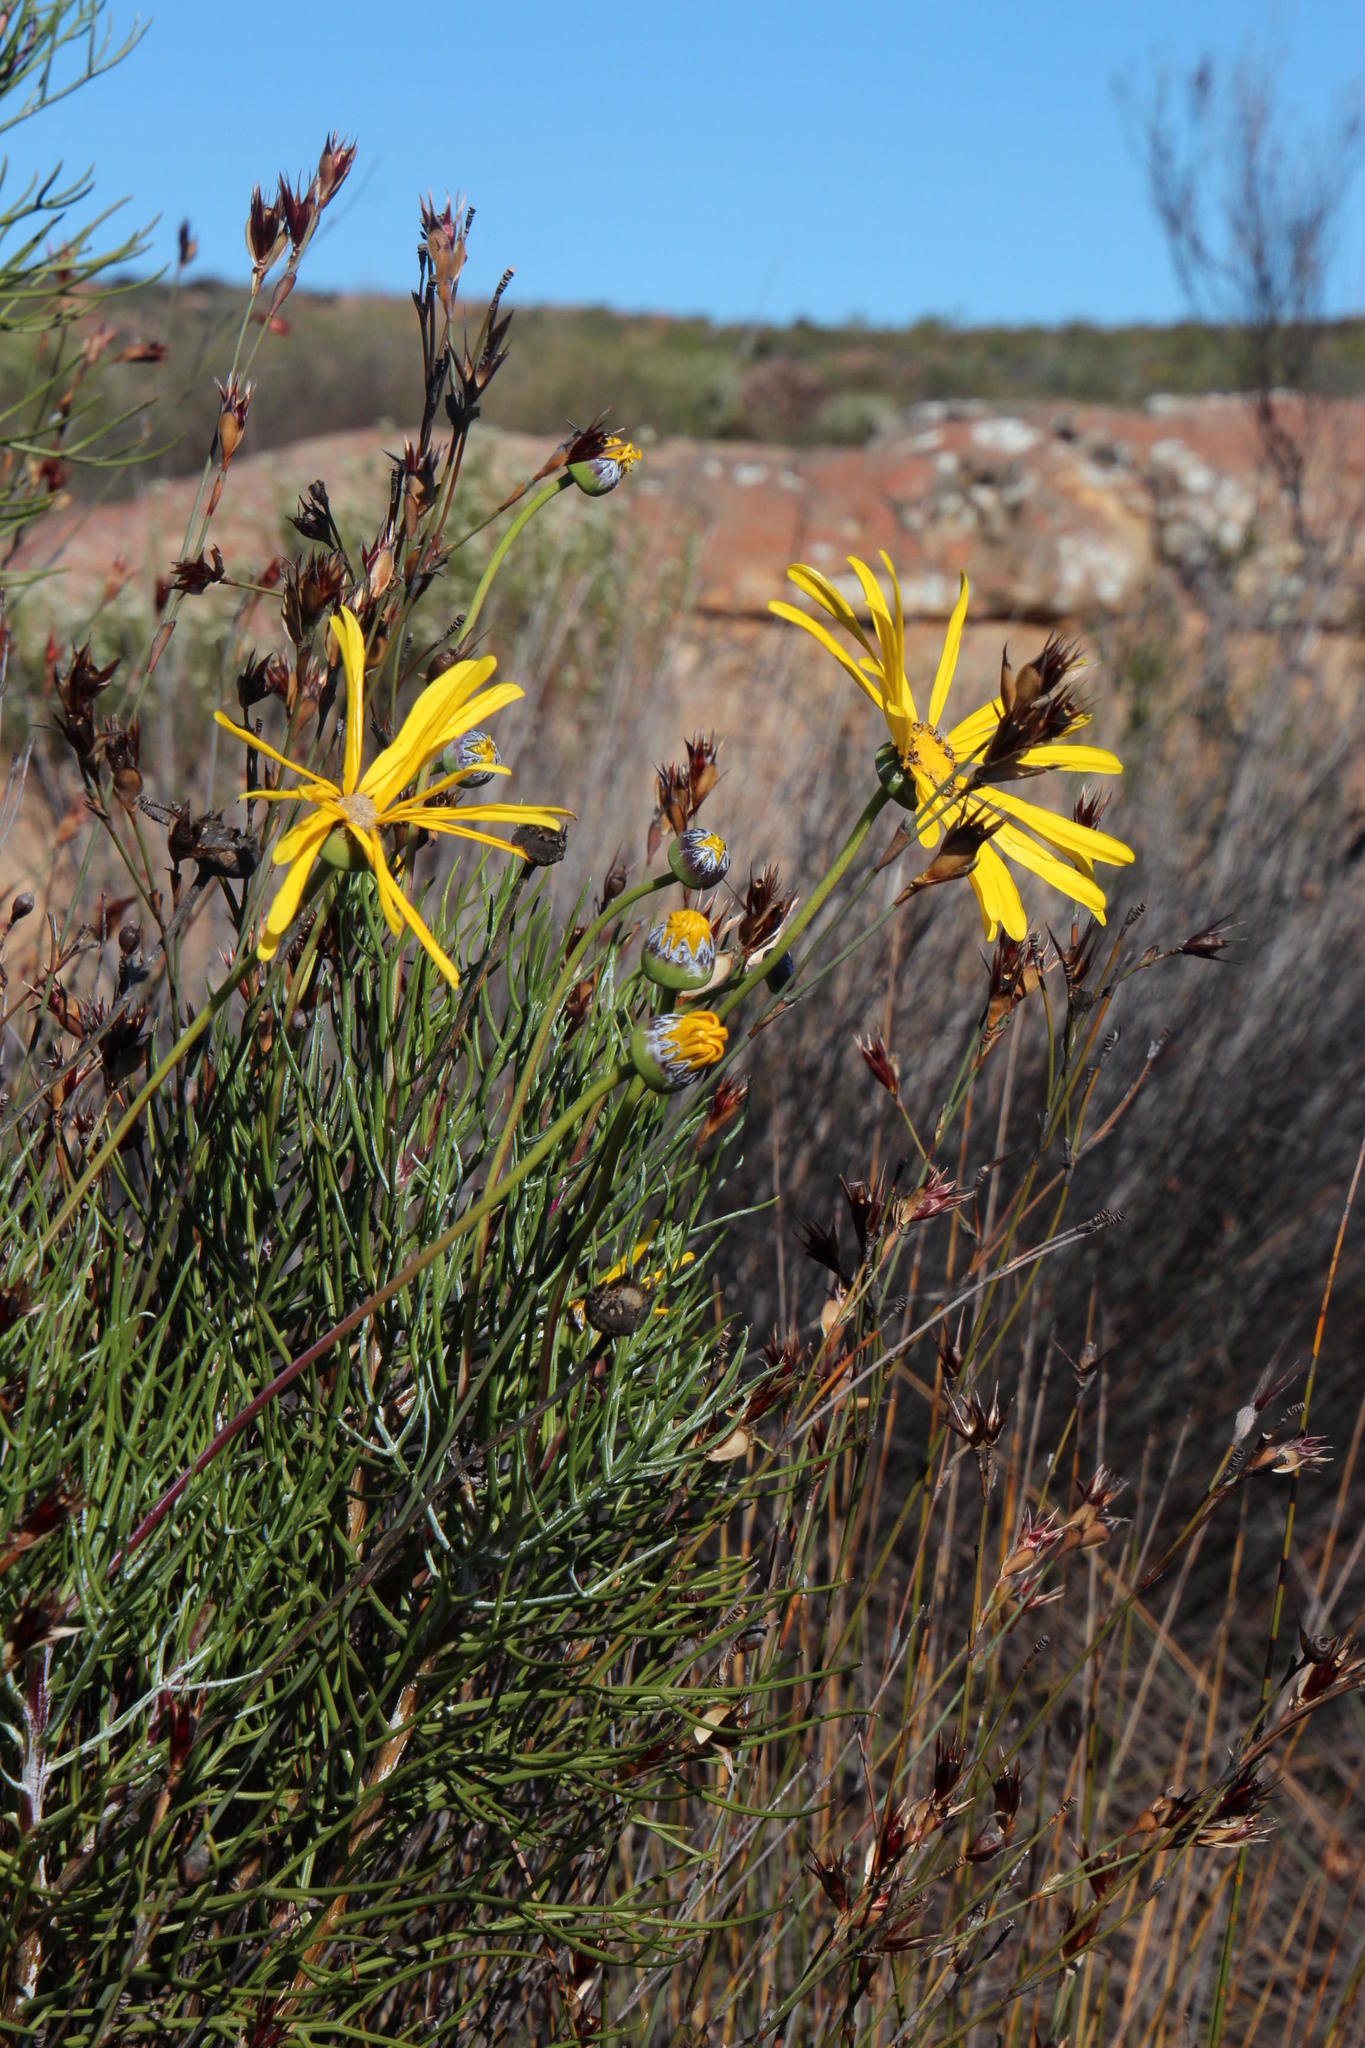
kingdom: Plantae
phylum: Tracheophyta
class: Magnoliopsida
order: Asterales
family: Asteraceae
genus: Euryops
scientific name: Euryops speciosissimus
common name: Clanwilliam daisy
